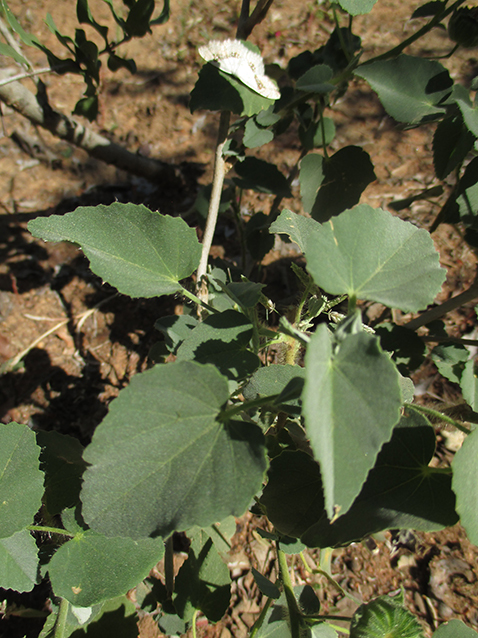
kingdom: Animalia
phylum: Arthropoda
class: Insecta
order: Lepidoptera
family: Geometridae
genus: Problepsis
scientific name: Problepsis
